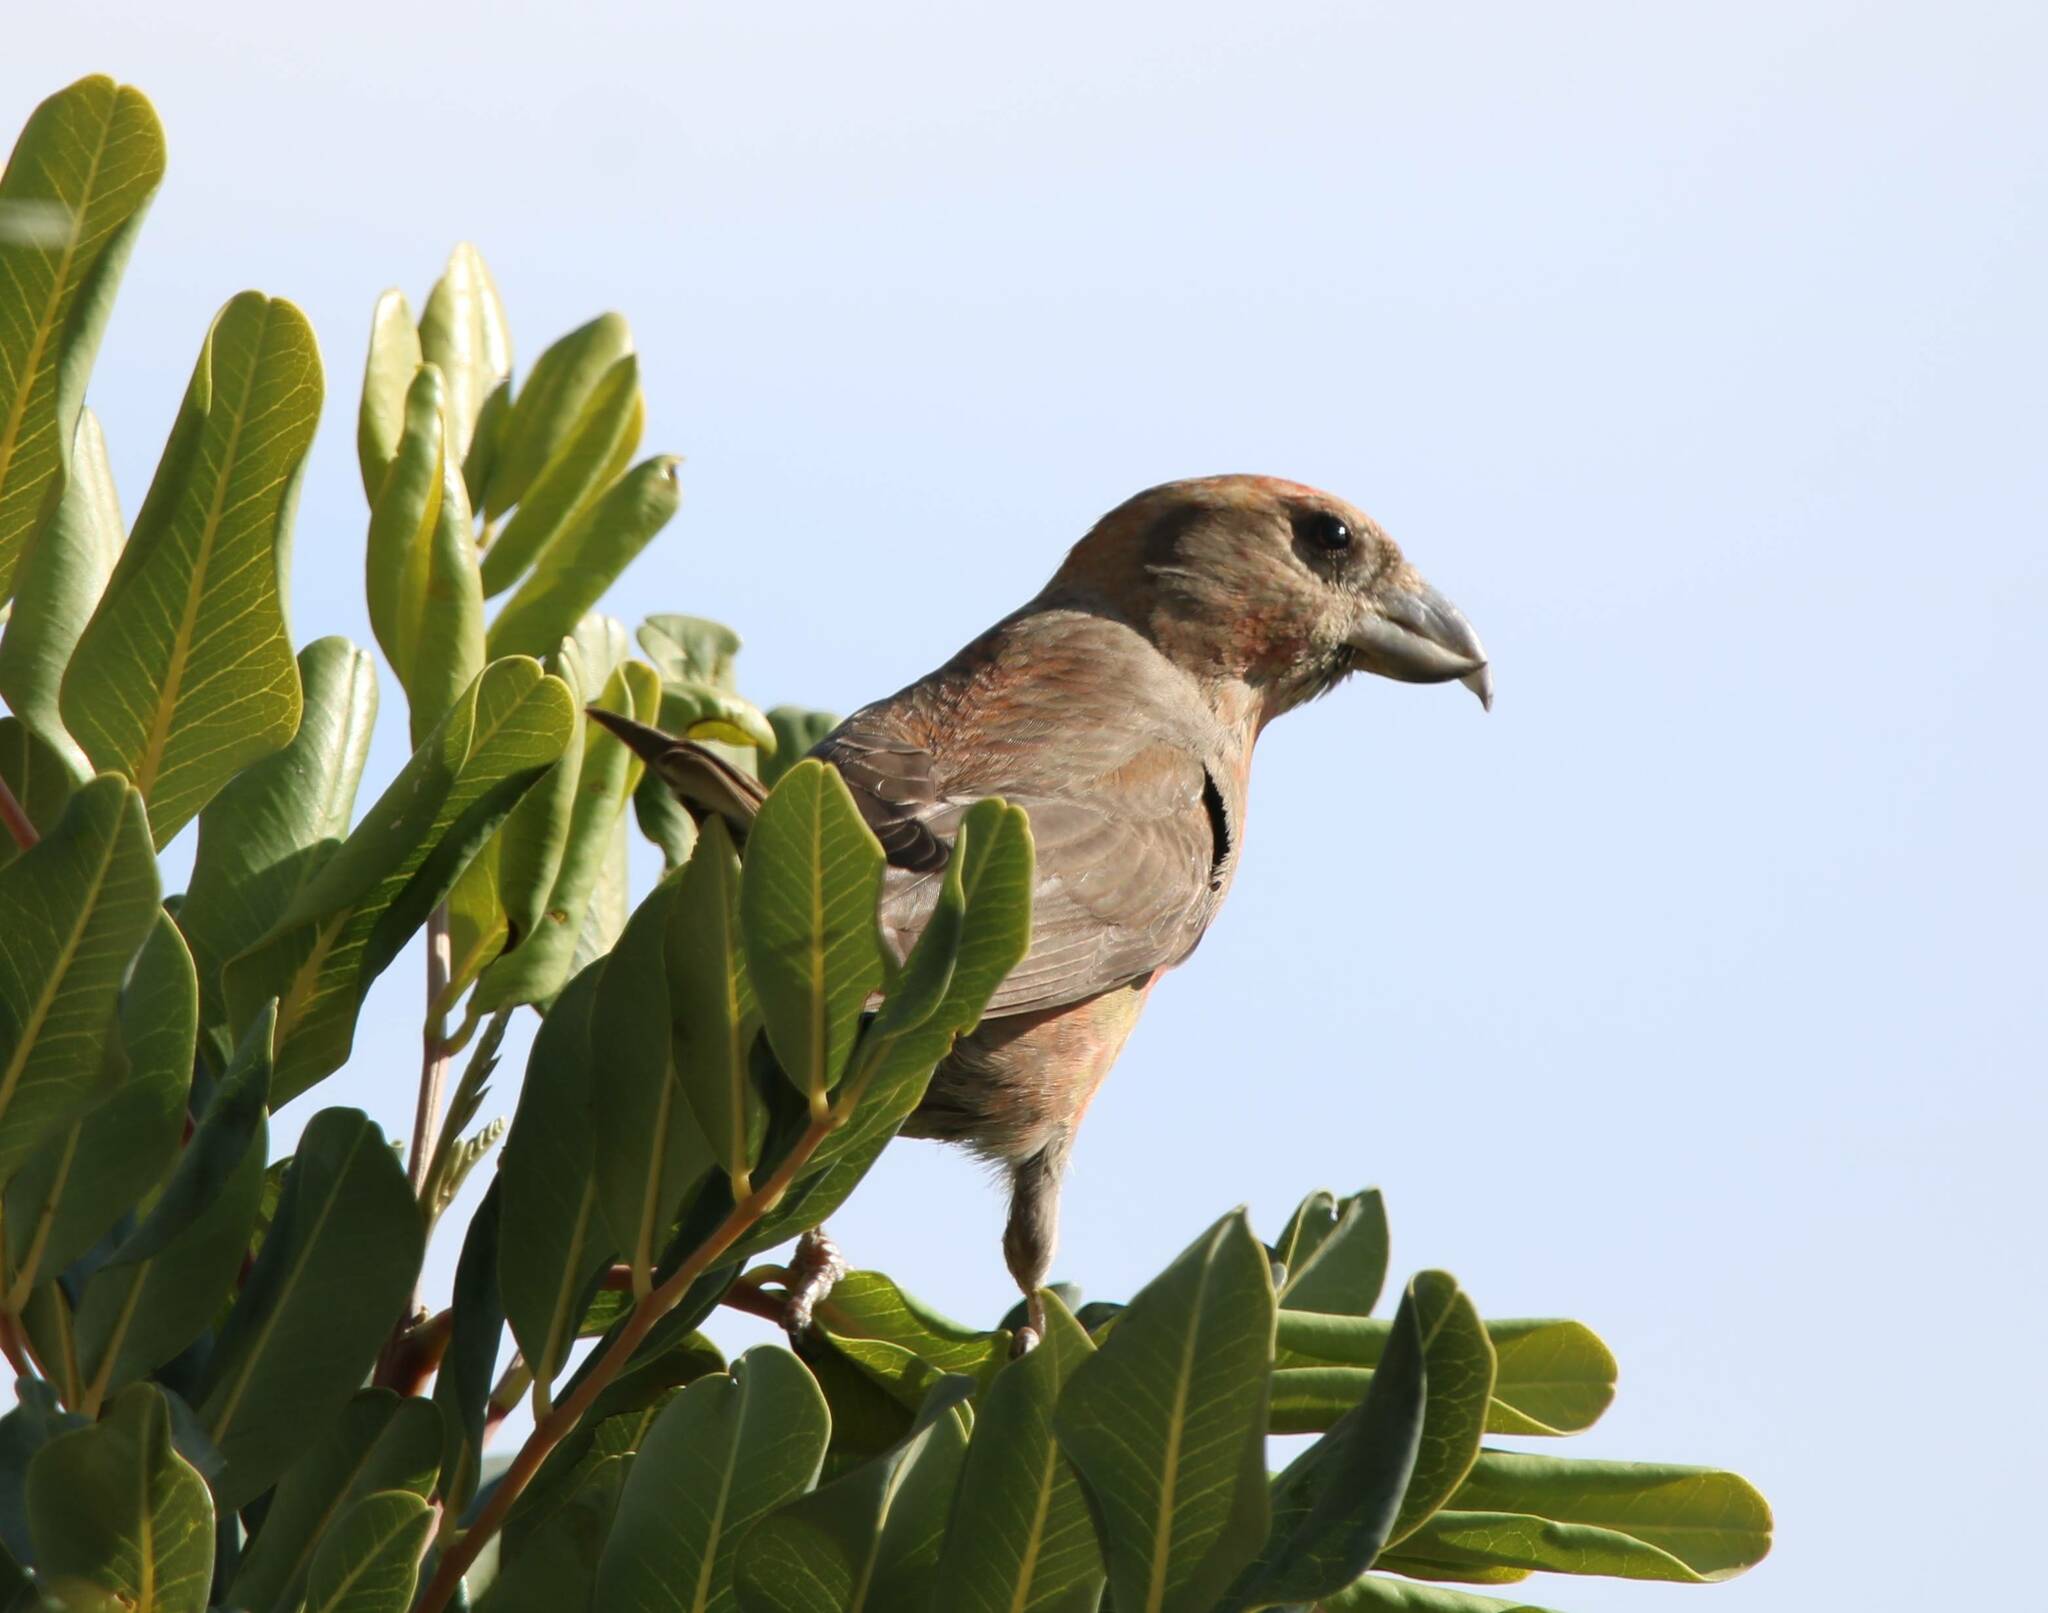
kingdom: Animalia
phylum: Chordata
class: Aves
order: Passeriformes
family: Fringillidae
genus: Loxia
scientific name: Loxia curvirostra
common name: Red crossbill
